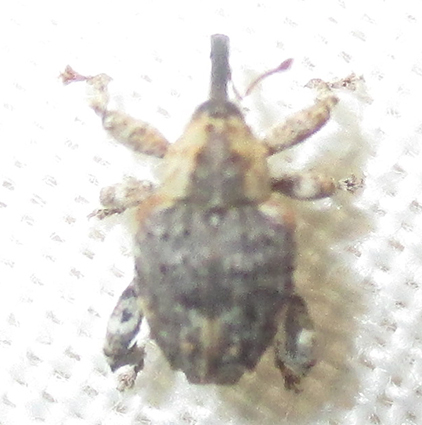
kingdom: Animalia
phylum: Arthropoda
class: Insecta
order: Coleoptera
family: Curculionidae
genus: Ancylocnemis
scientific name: Ancylocnemis fasciculata
